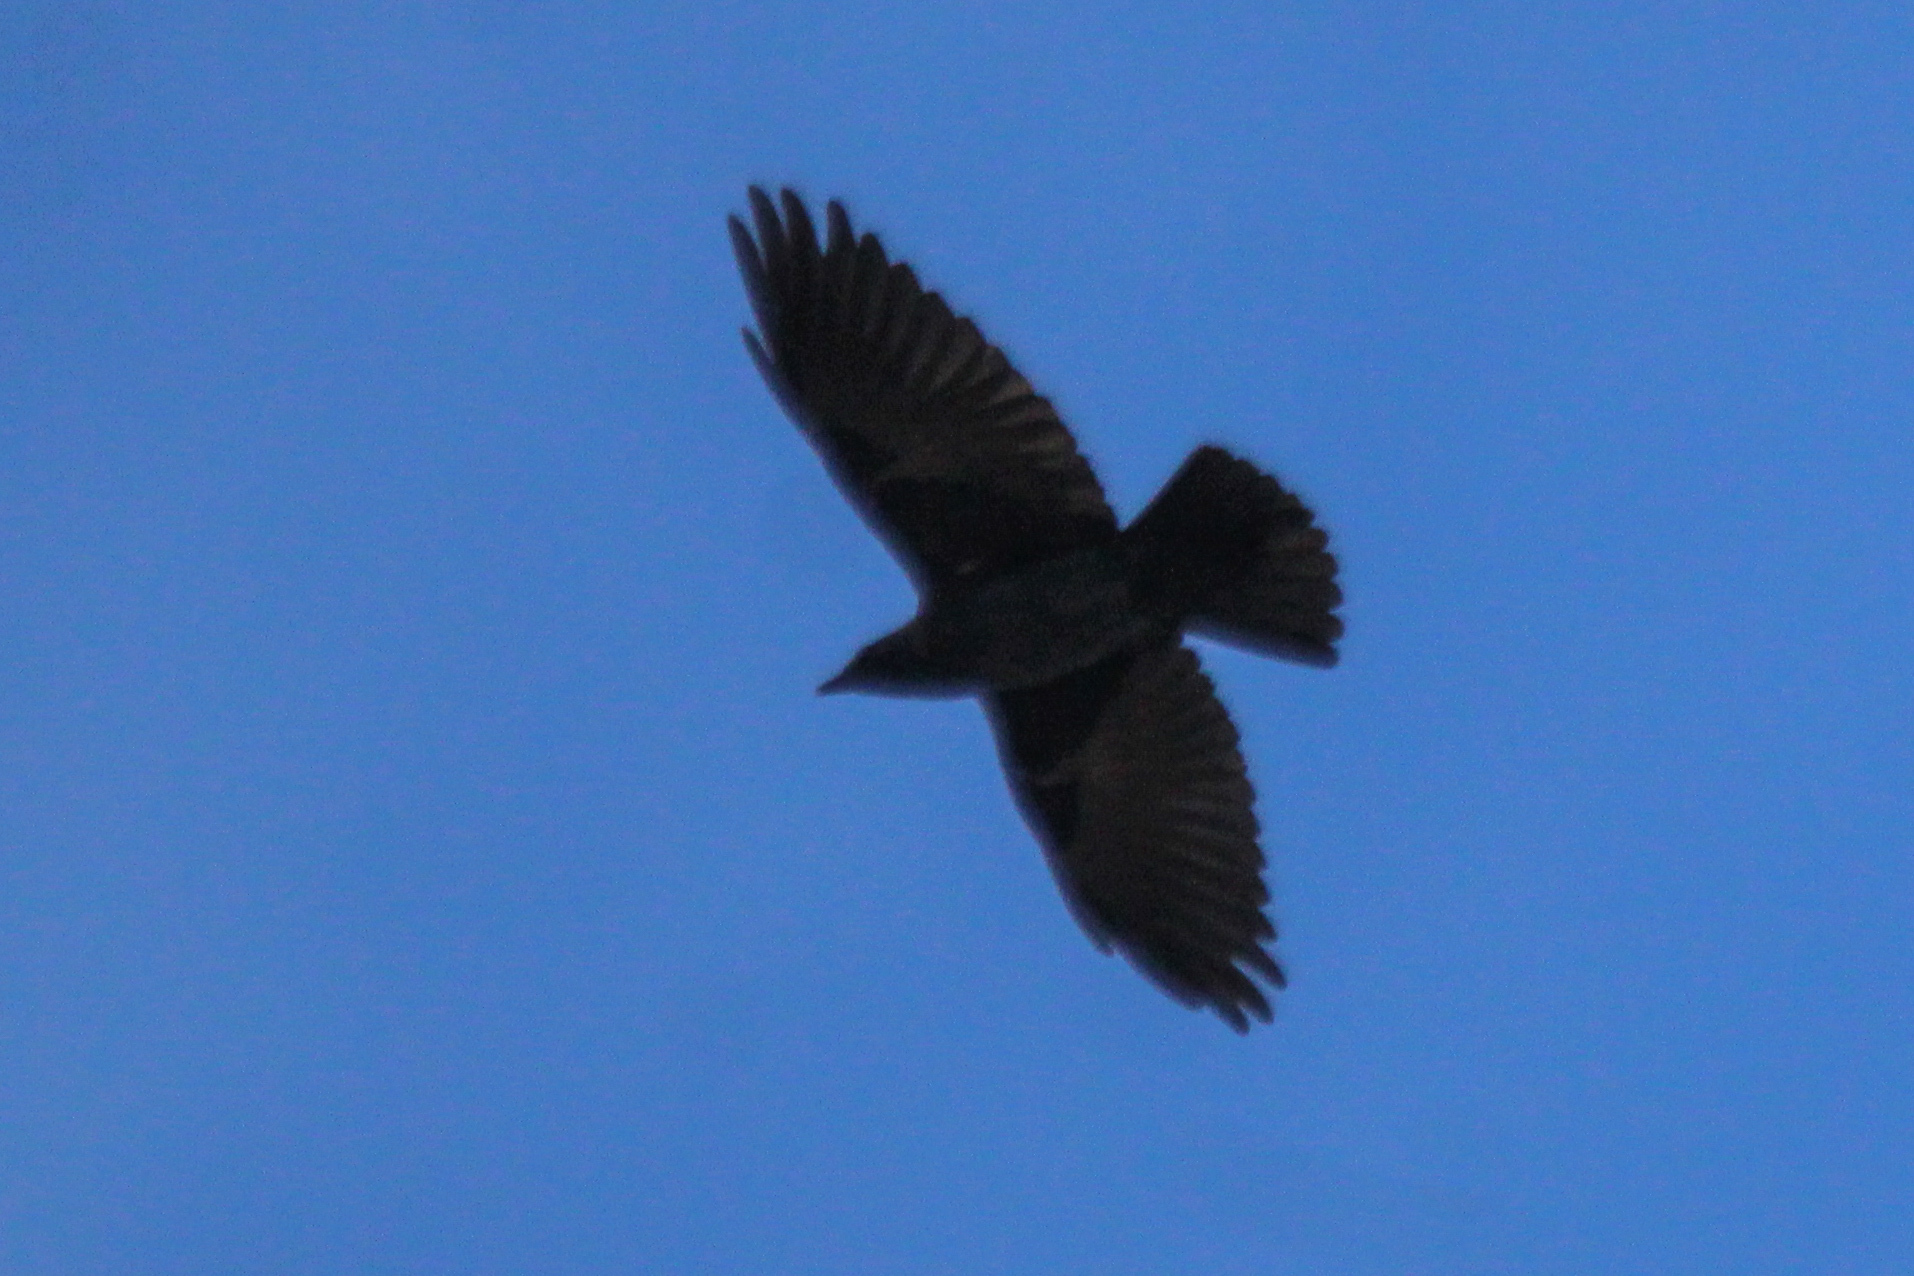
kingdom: Animalia
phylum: Chordata
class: Aves
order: Passeriformes
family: Corvidae
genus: Coloeus
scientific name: Coloeus dauuricus
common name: Daurian jackdaw
